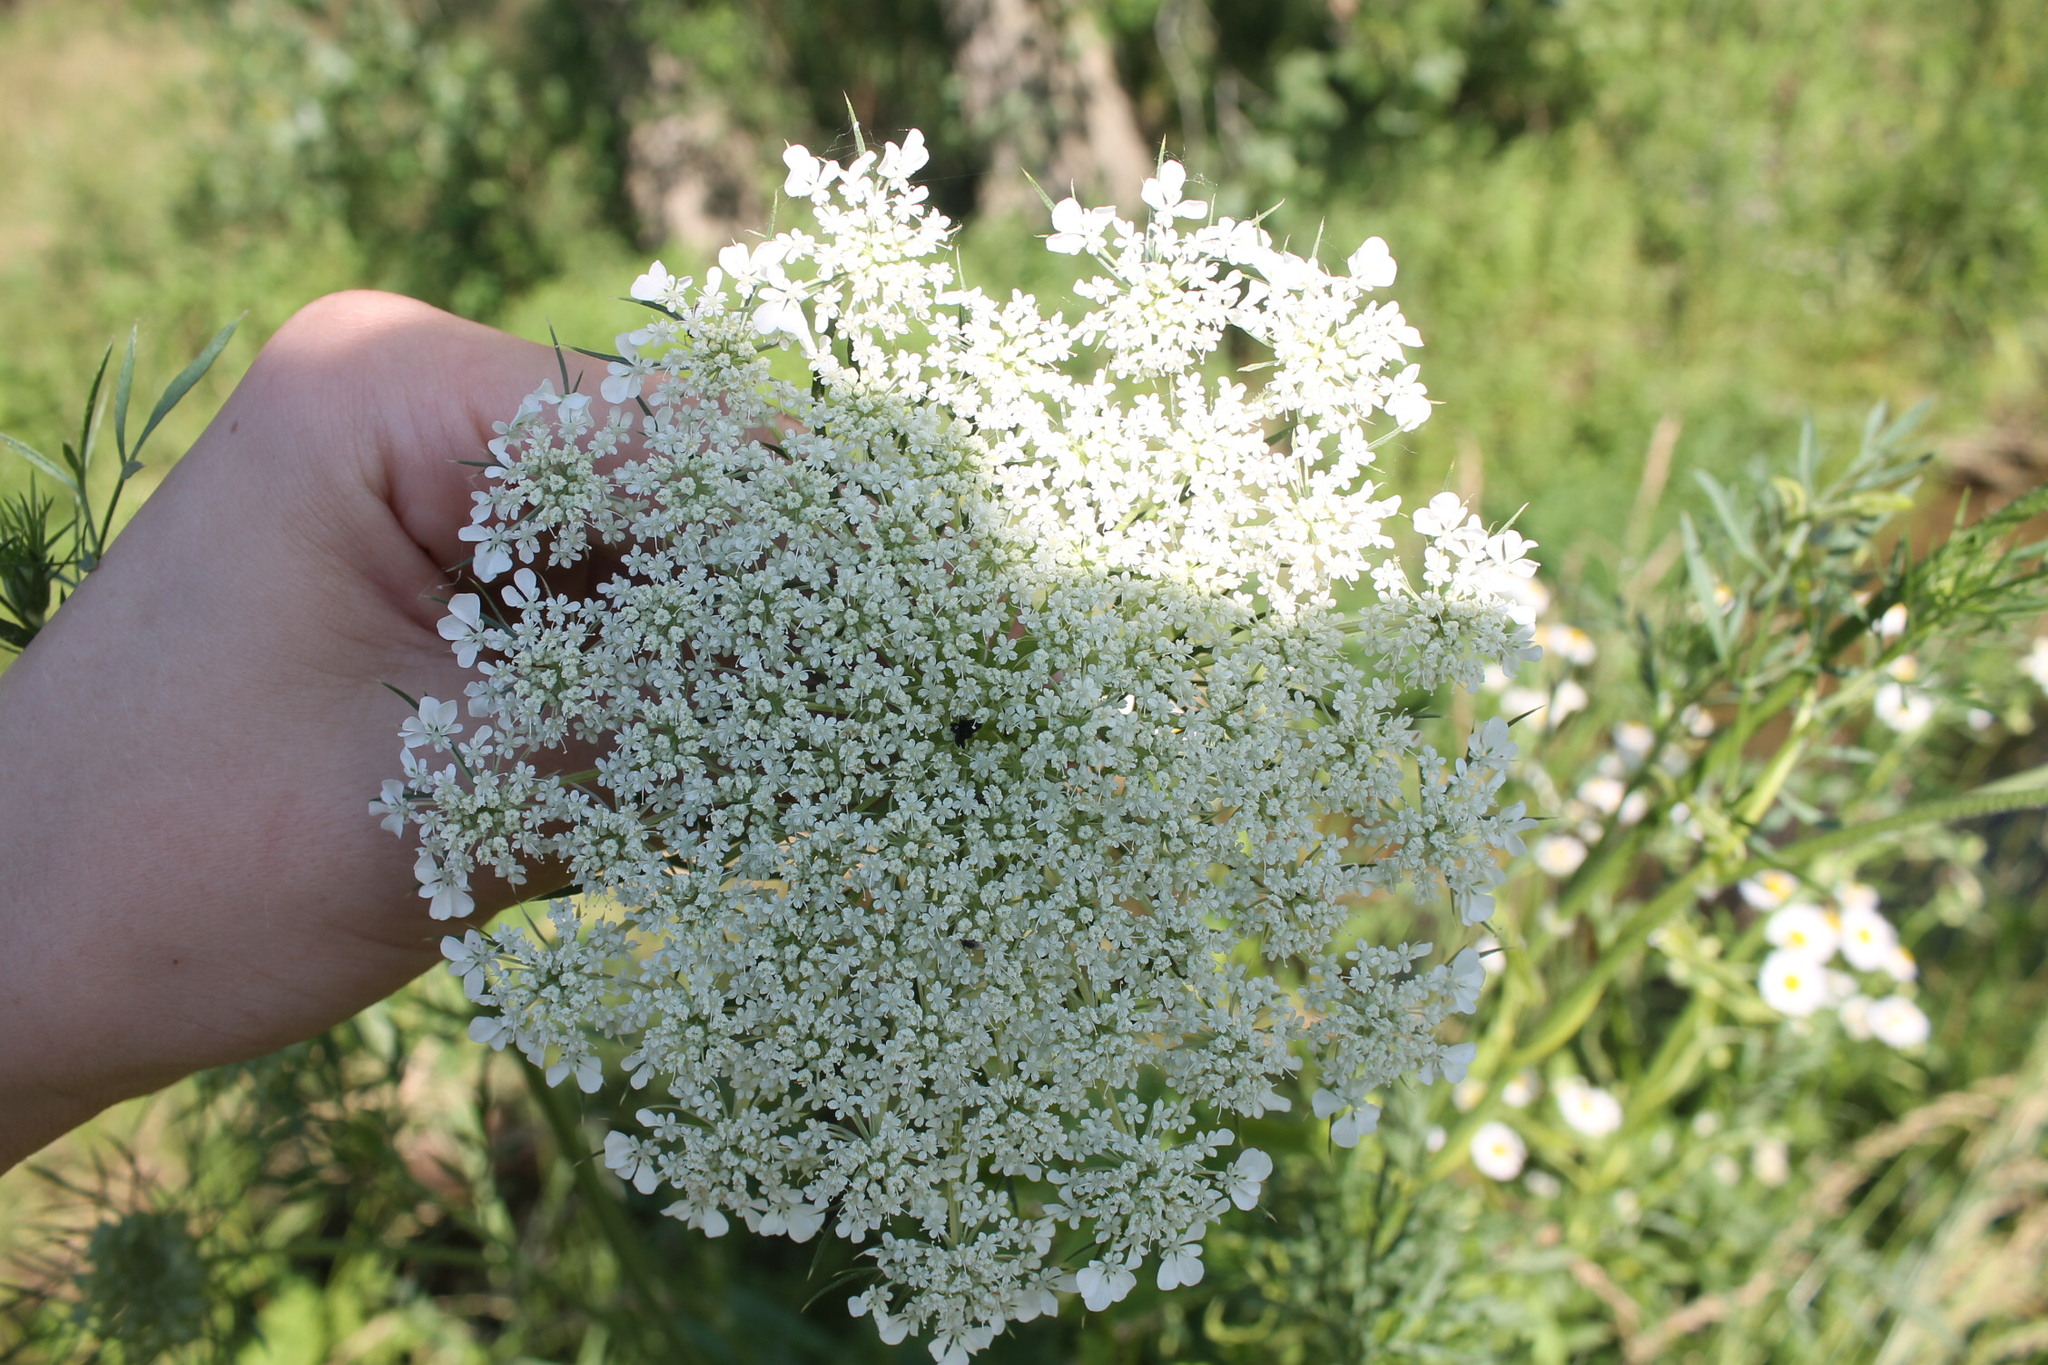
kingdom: Plantae
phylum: Tracheophyta
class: Magnoliopsida
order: Apiales
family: Apiaceae
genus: Daucus
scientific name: Daucus carota
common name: Wild carrot
